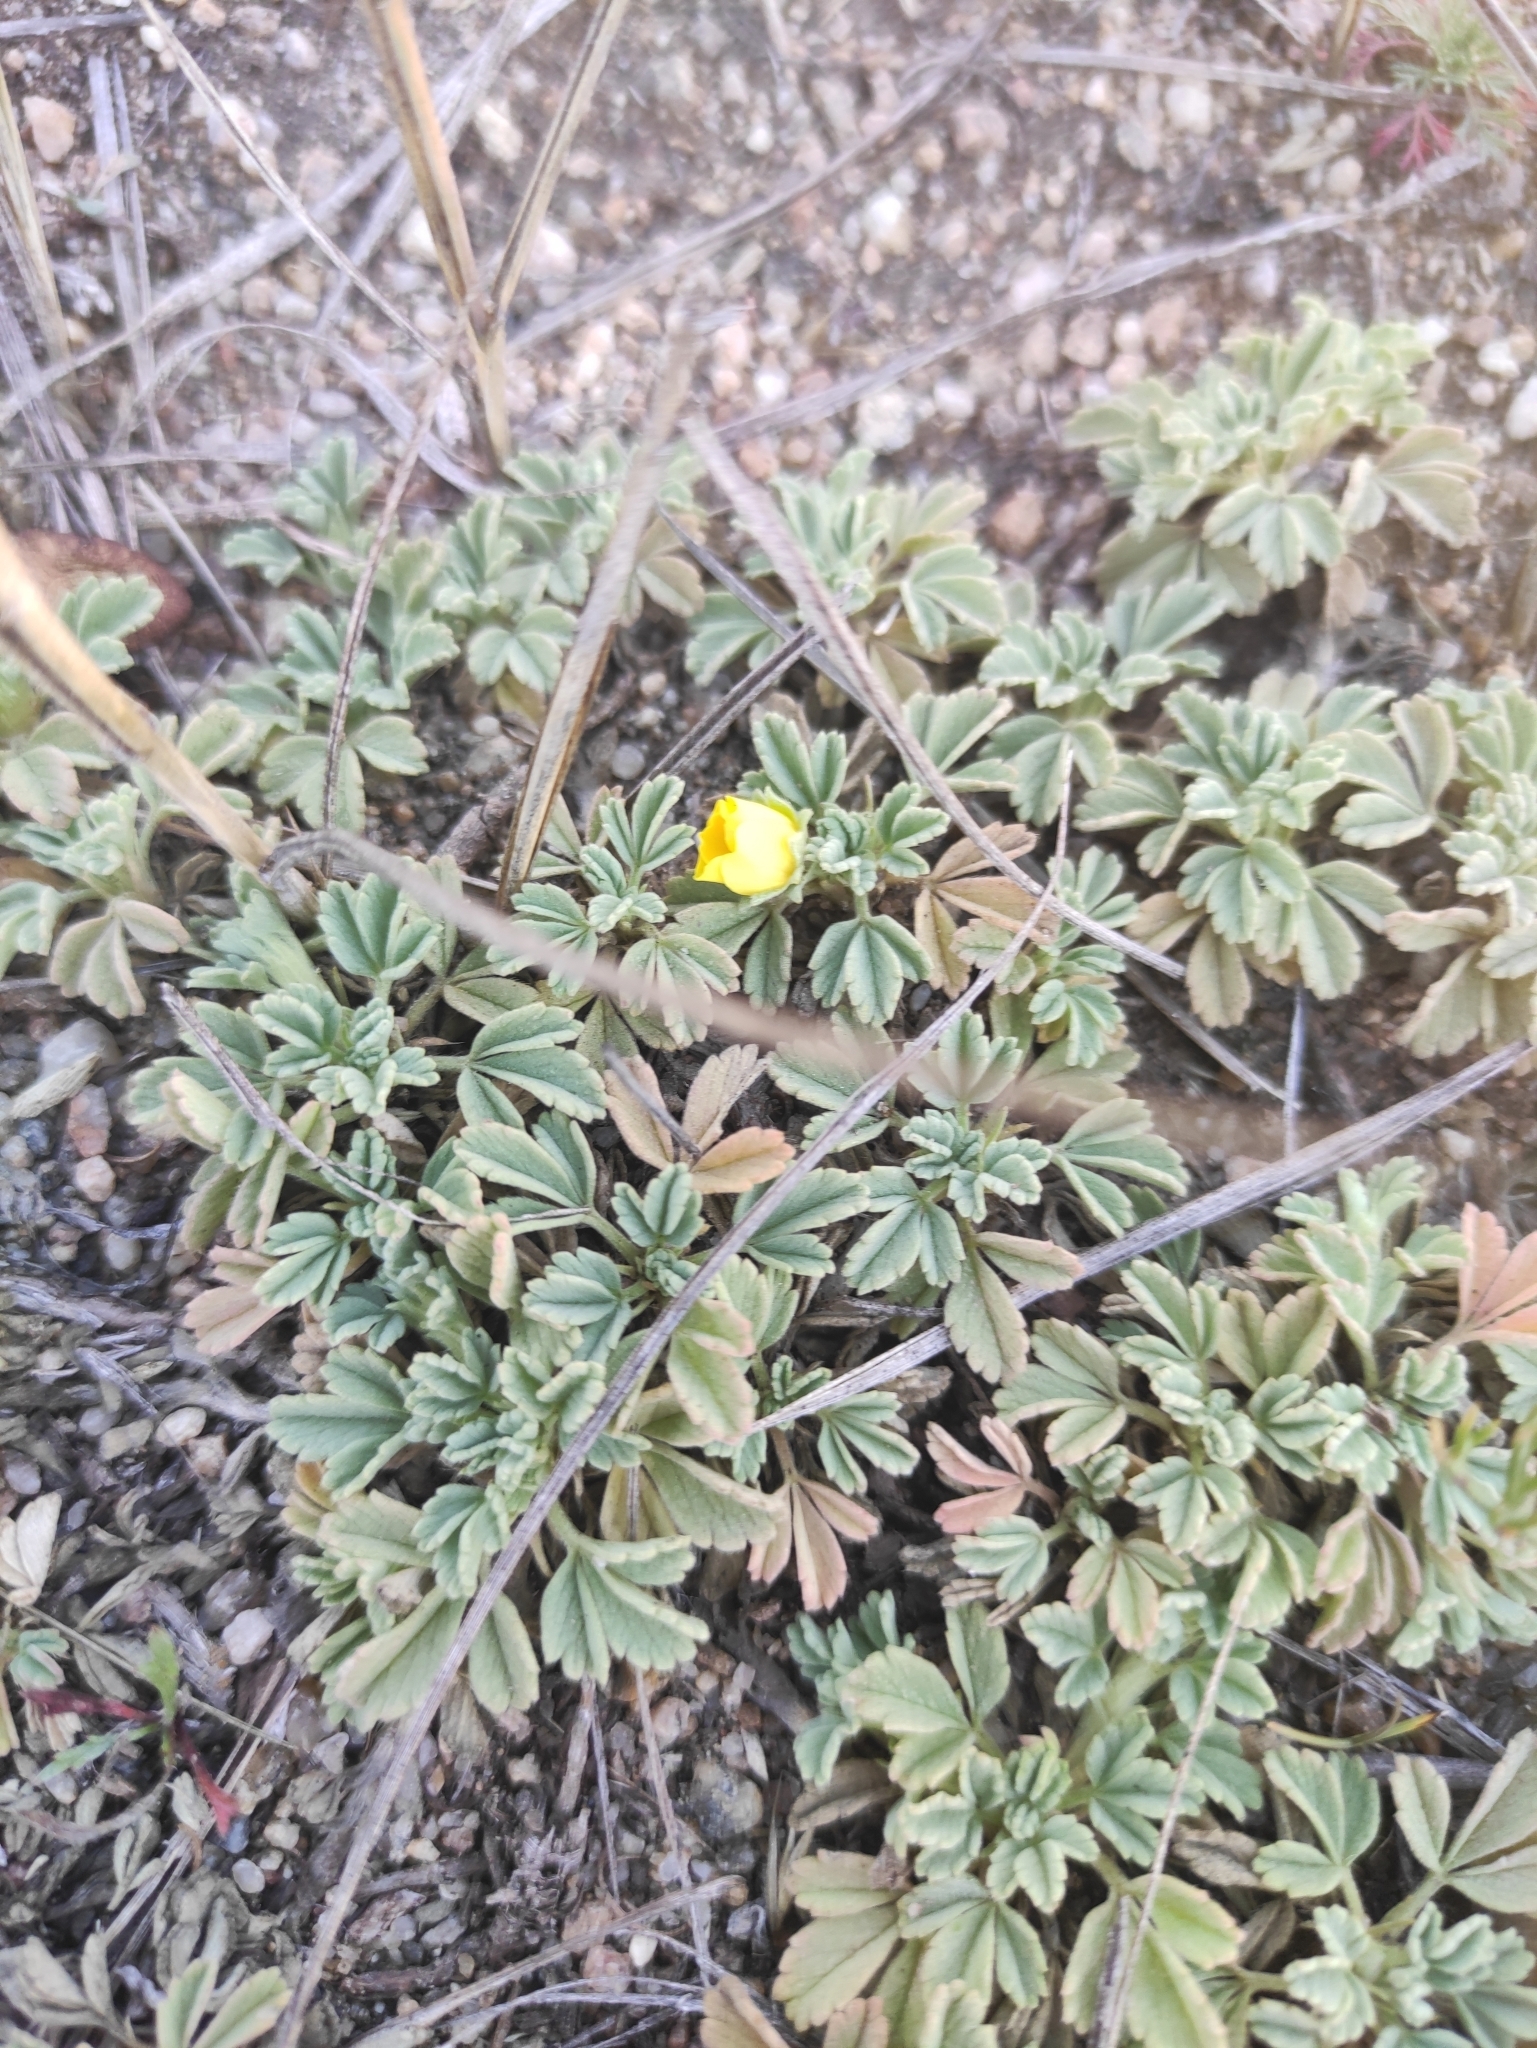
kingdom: Plantae
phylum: Tracheophyta
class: Magnoliopsida
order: Rosales
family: Rosaceae
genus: Potentilla
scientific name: Potentilla acaulis
